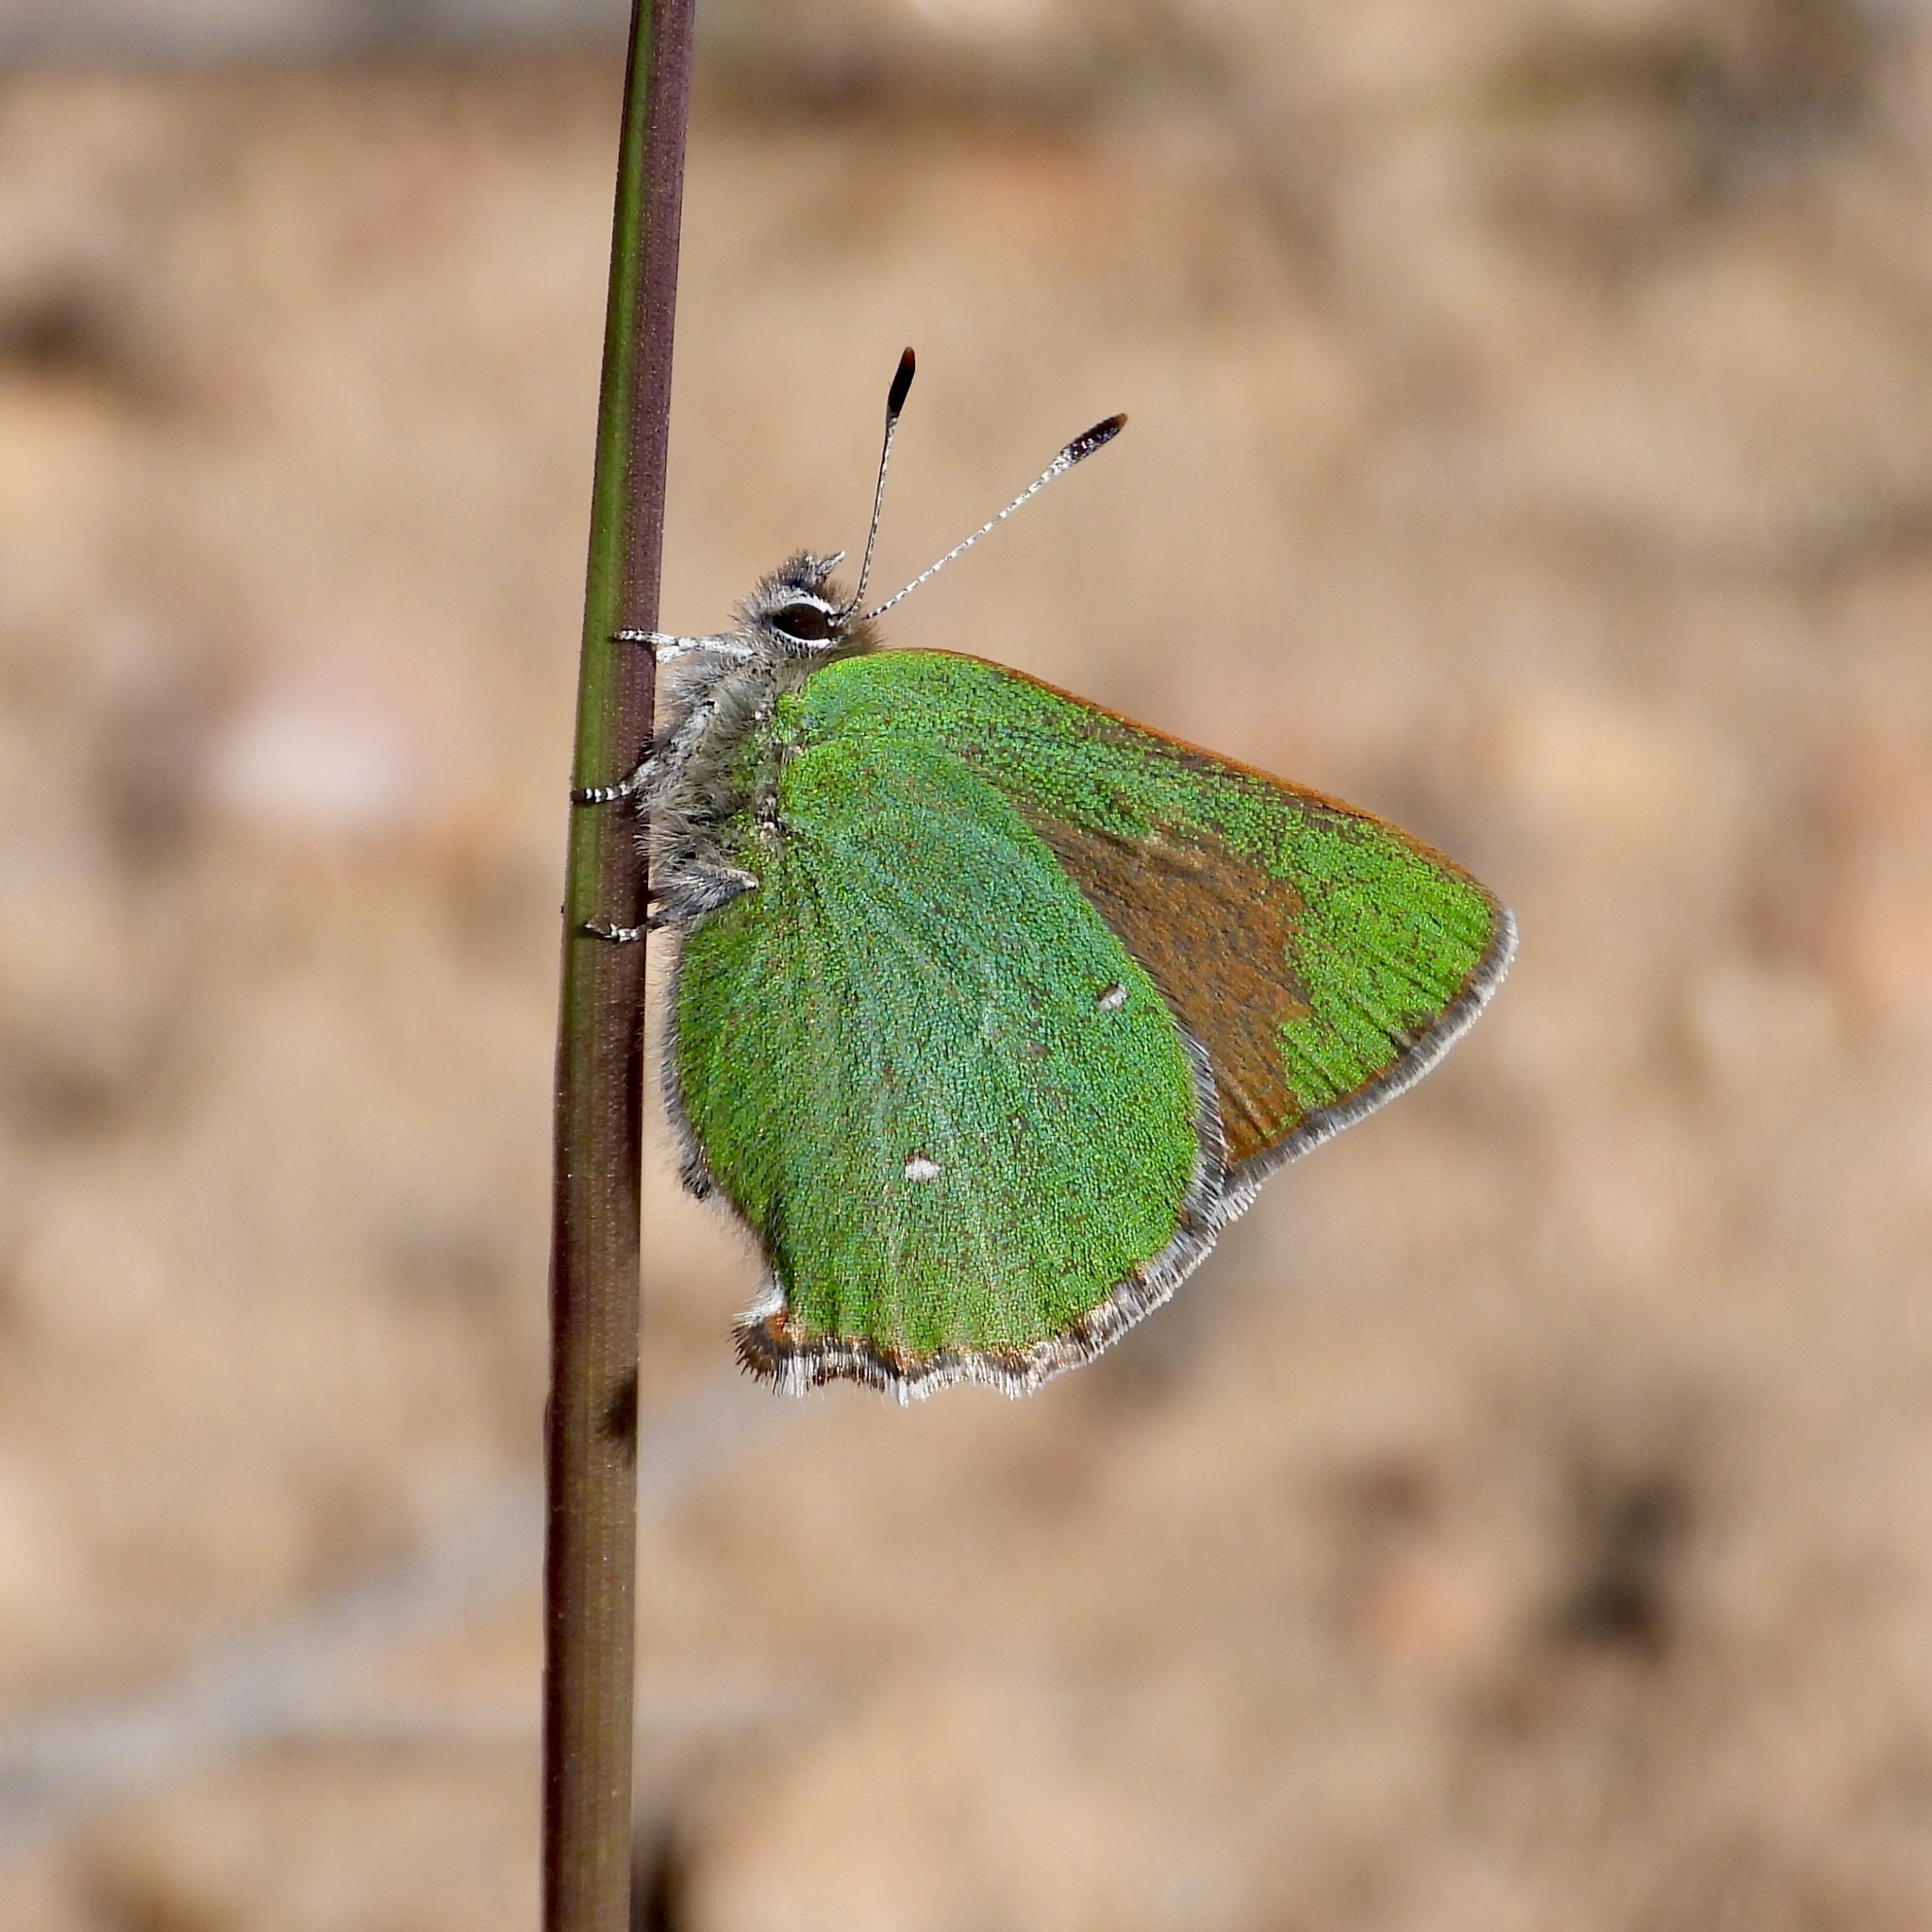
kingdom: Animalia
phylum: Arthropoda
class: Insecta
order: Lepidoptera
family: Lycaenidae
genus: Callophrys
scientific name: Callophrys dumetorum
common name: Bramble hairstreak
